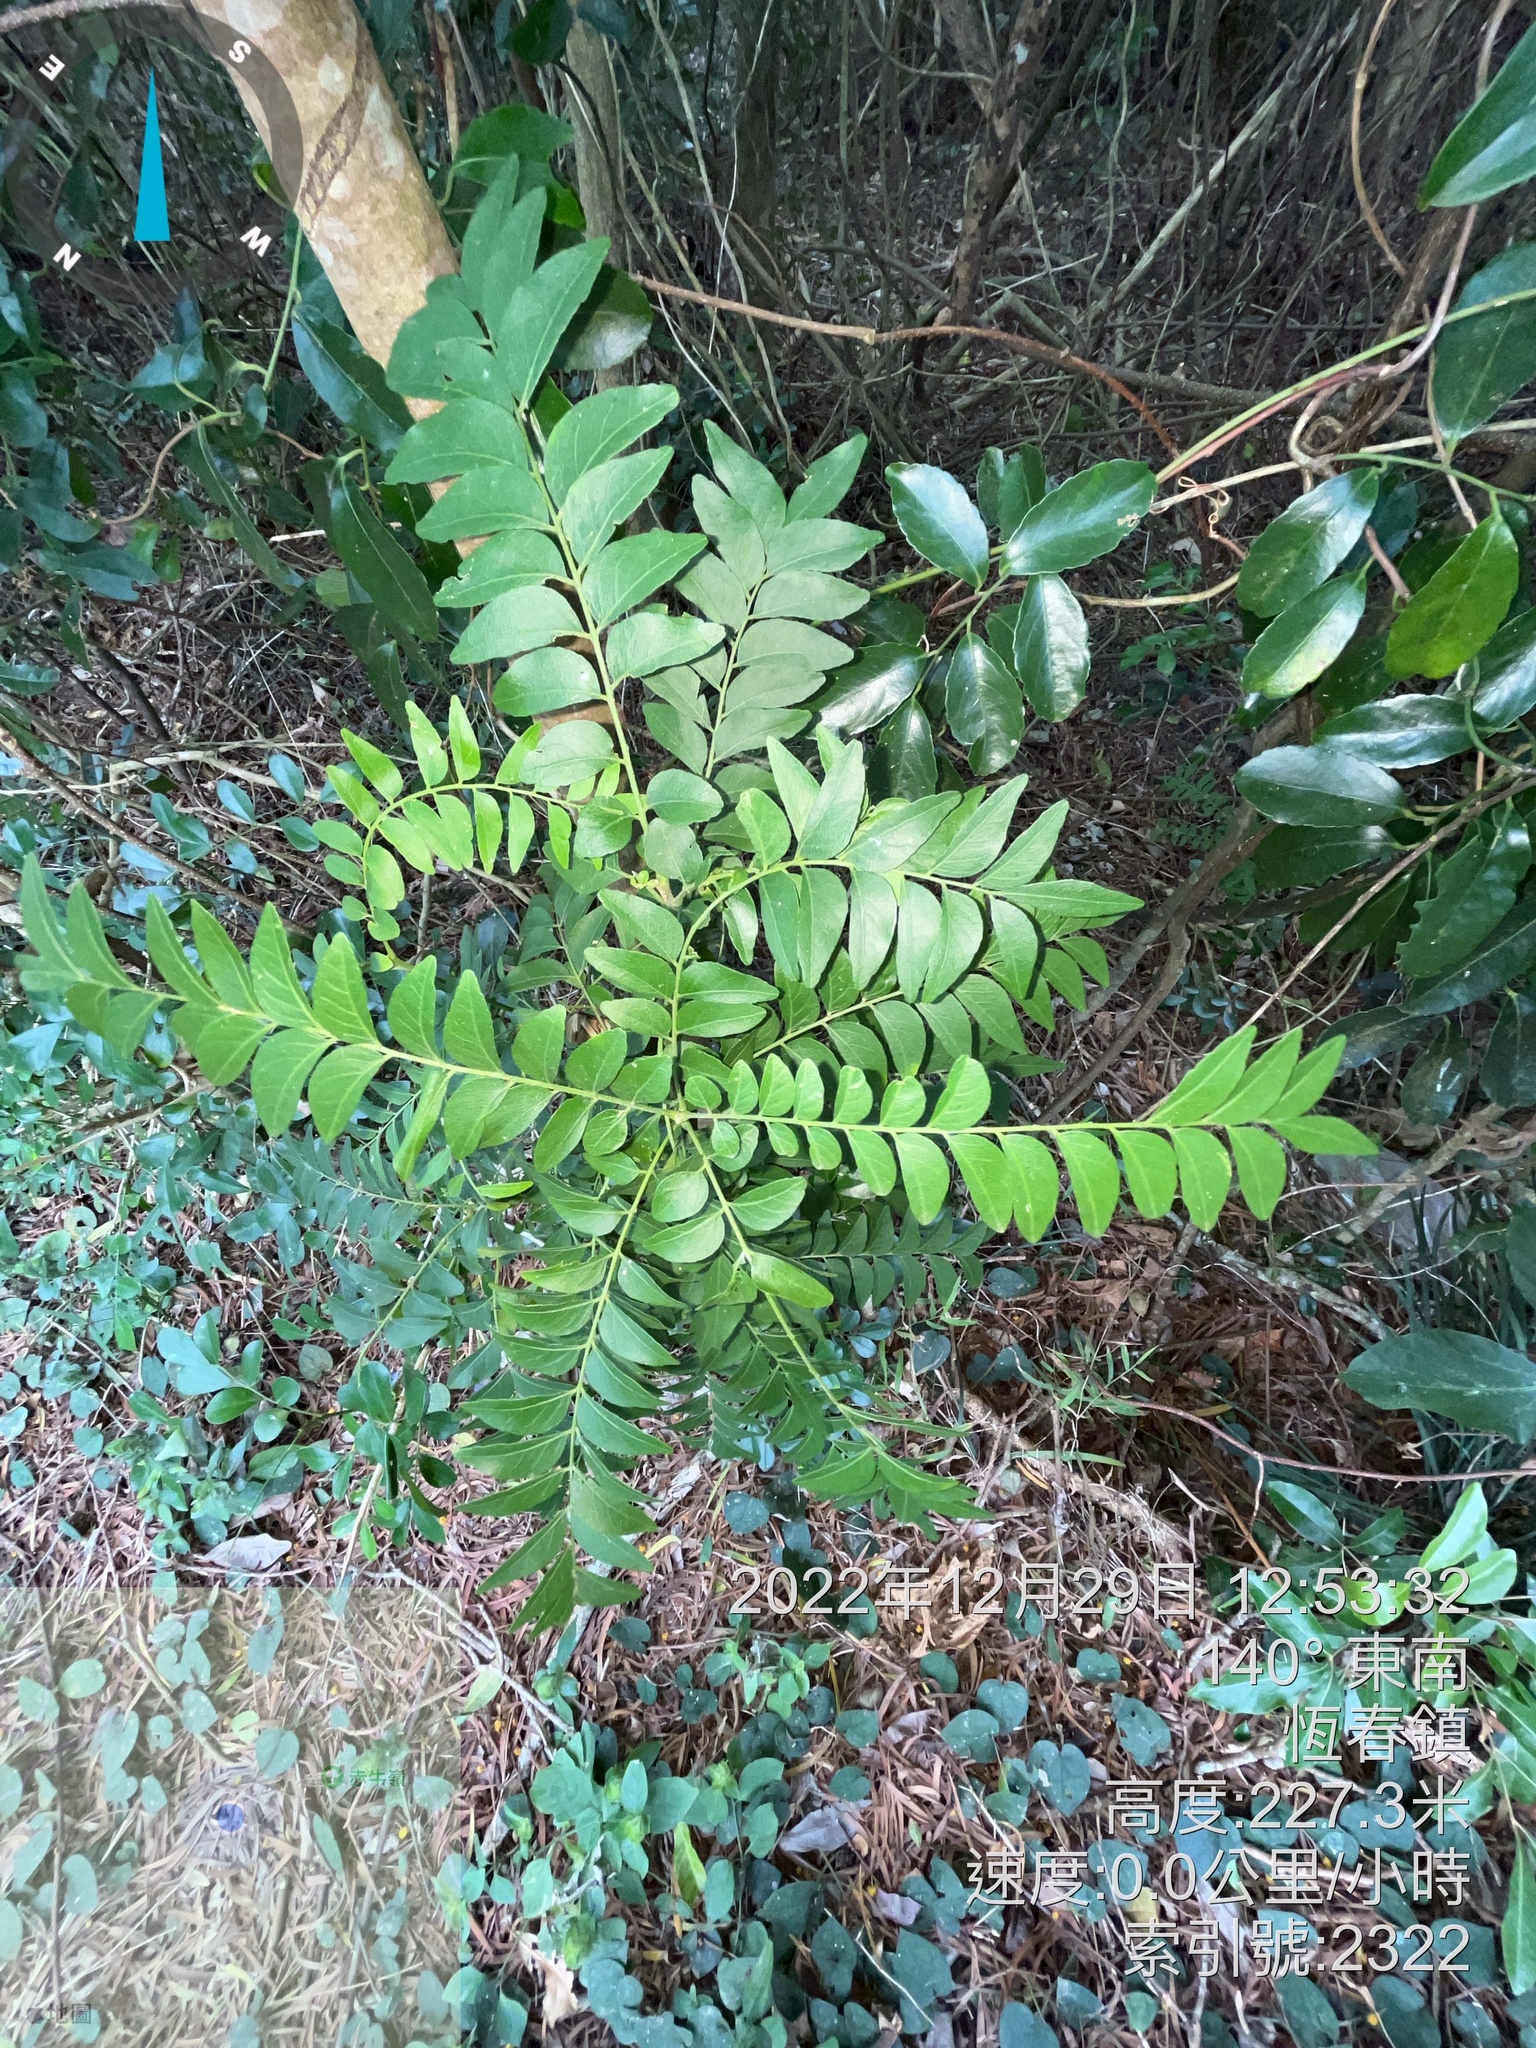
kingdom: Plantae
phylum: Tracheophyta
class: Magnoliopsida
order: Sapindales
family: Rutaceae
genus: Clausena
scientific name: Clausena excavata
